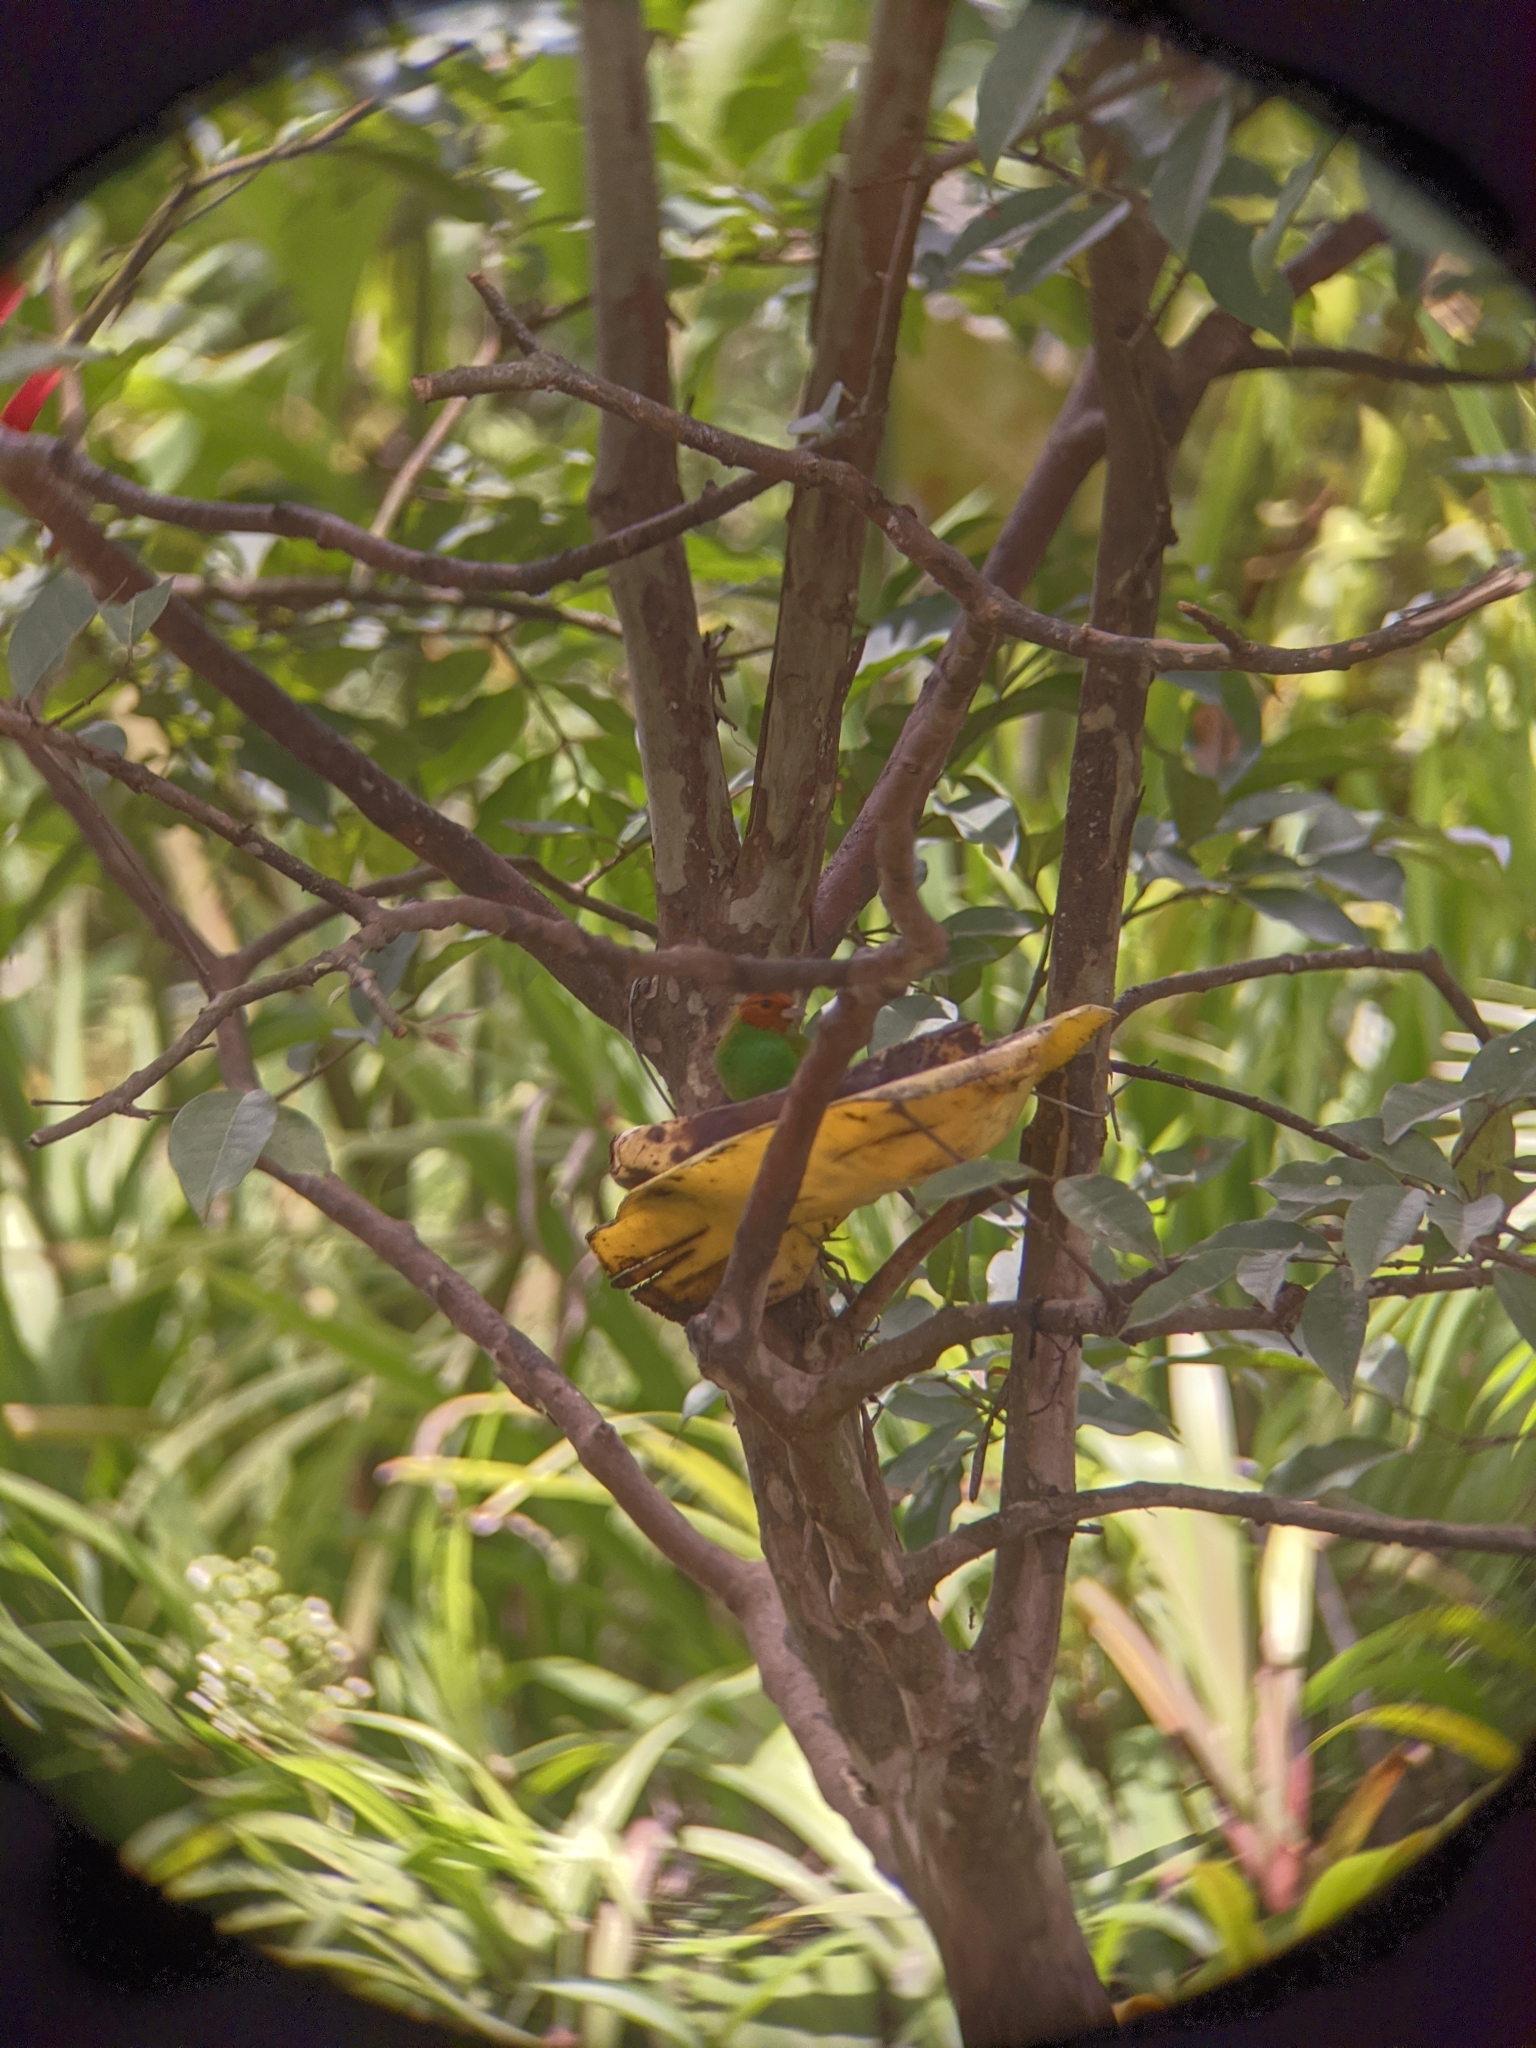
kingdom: Animalia
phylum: Chordata
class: Aves
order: Passeriformes
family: Thraupidae
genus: Tangara
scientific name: Tangara gyrola
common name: Bay-headed tanager
